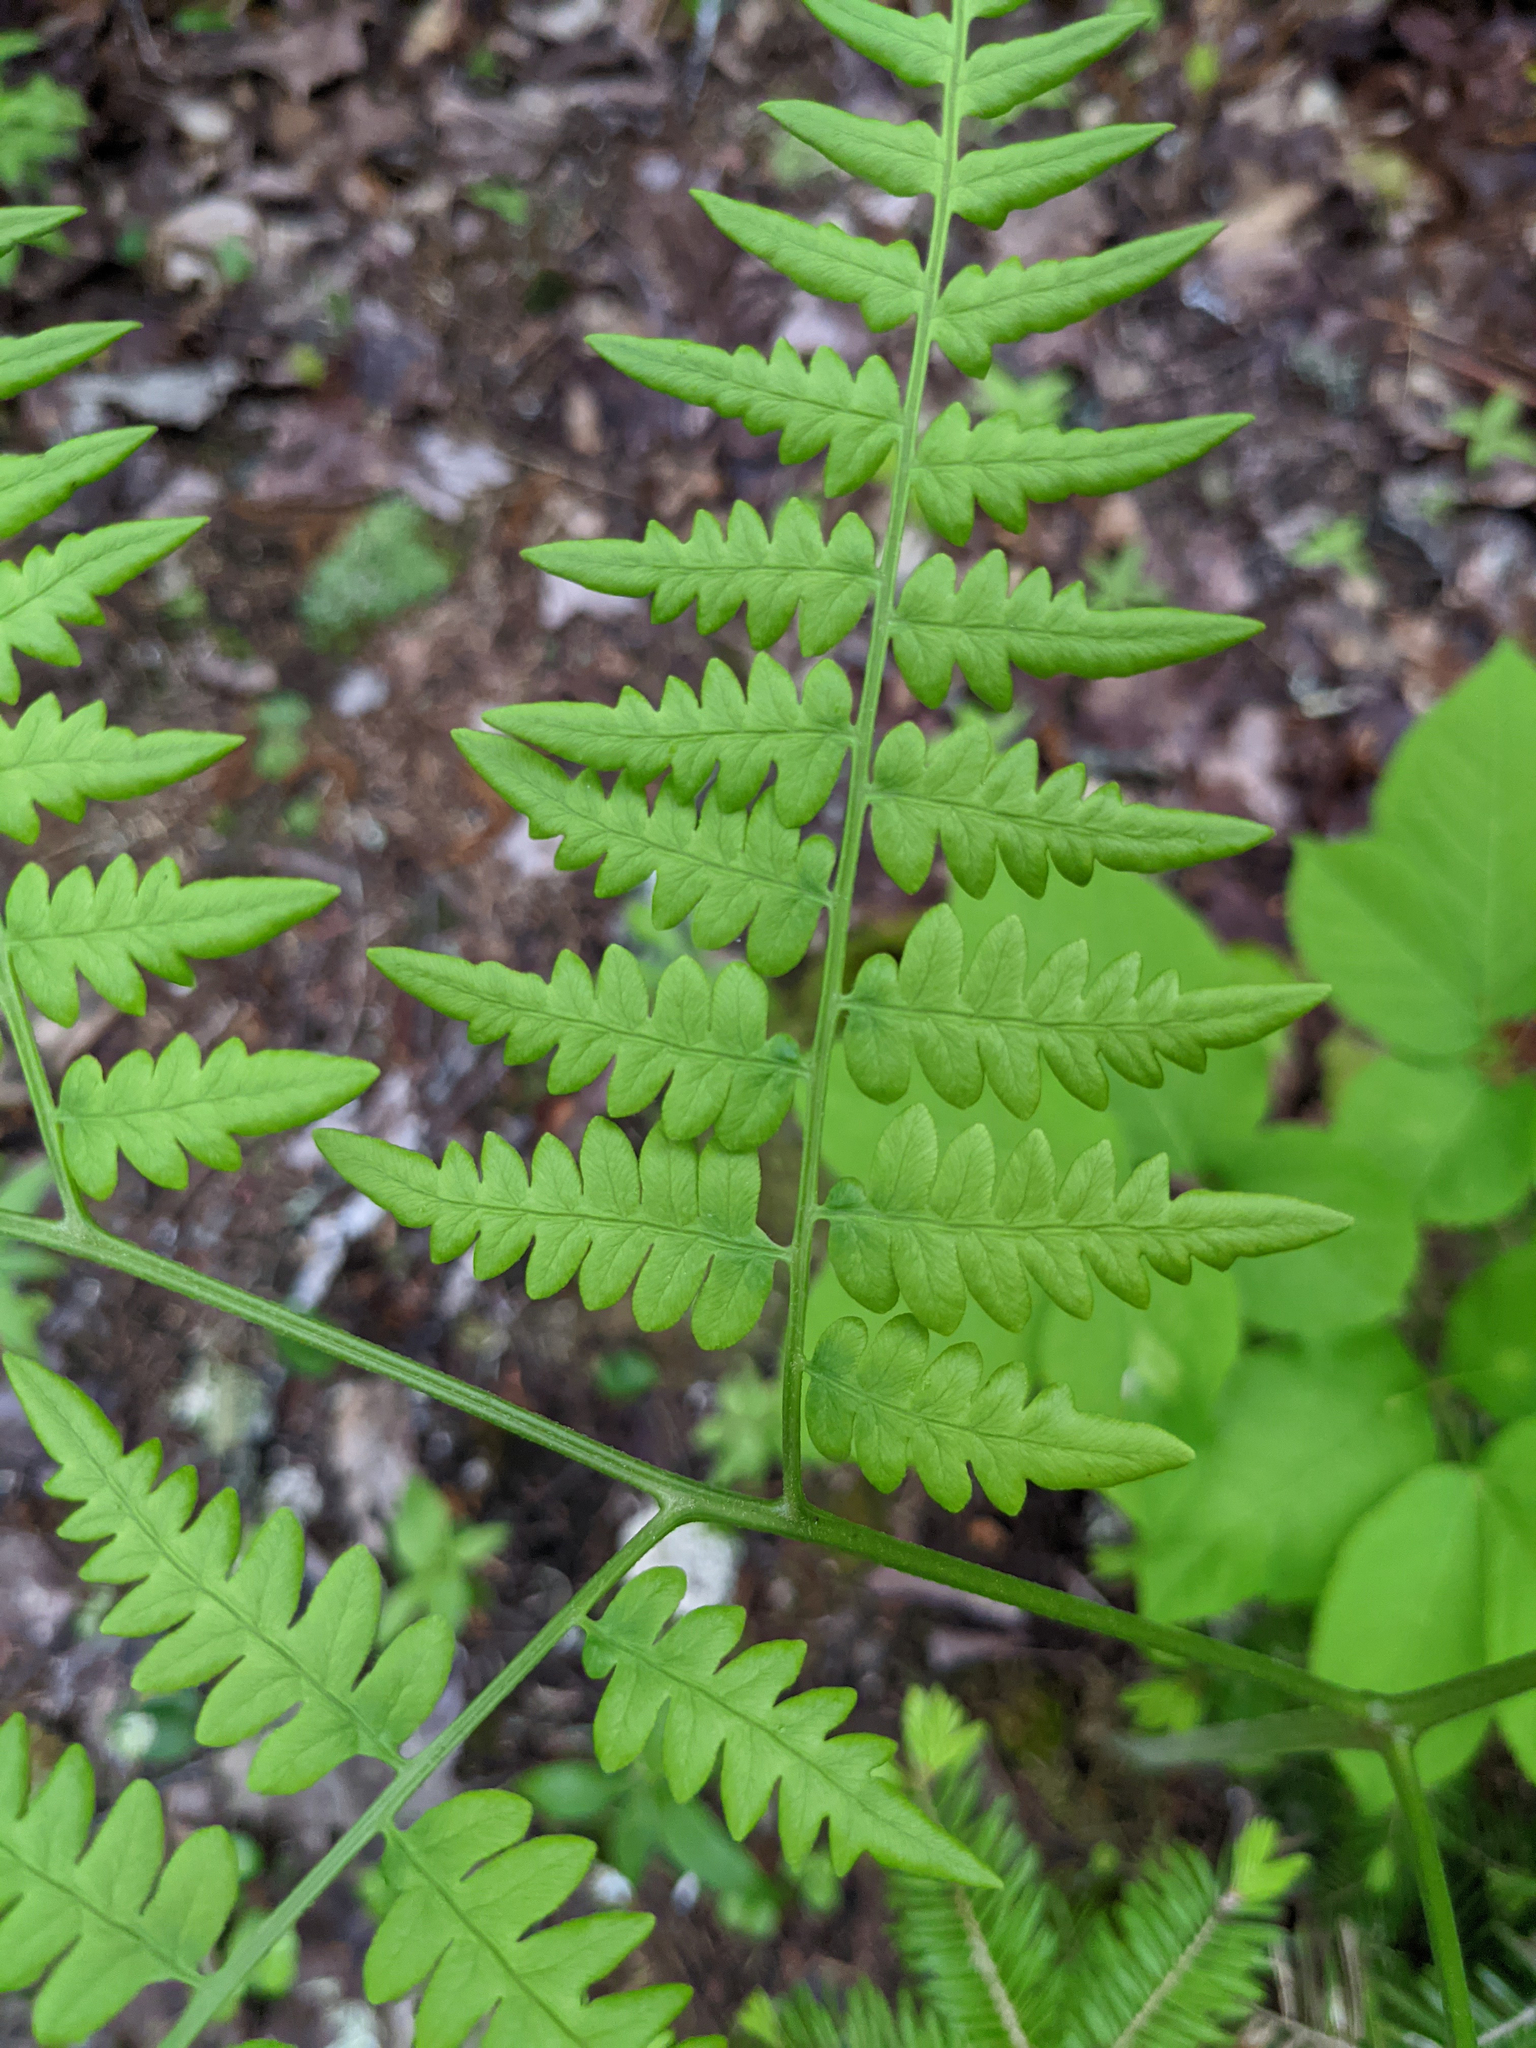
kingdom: Plantae
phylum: Tracheophyta
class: Polypodiopsida
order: Polypodiales
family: Dennstaedtiaceae
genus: Pteridium
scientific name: Pteridium aquilinum
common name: Bracken
